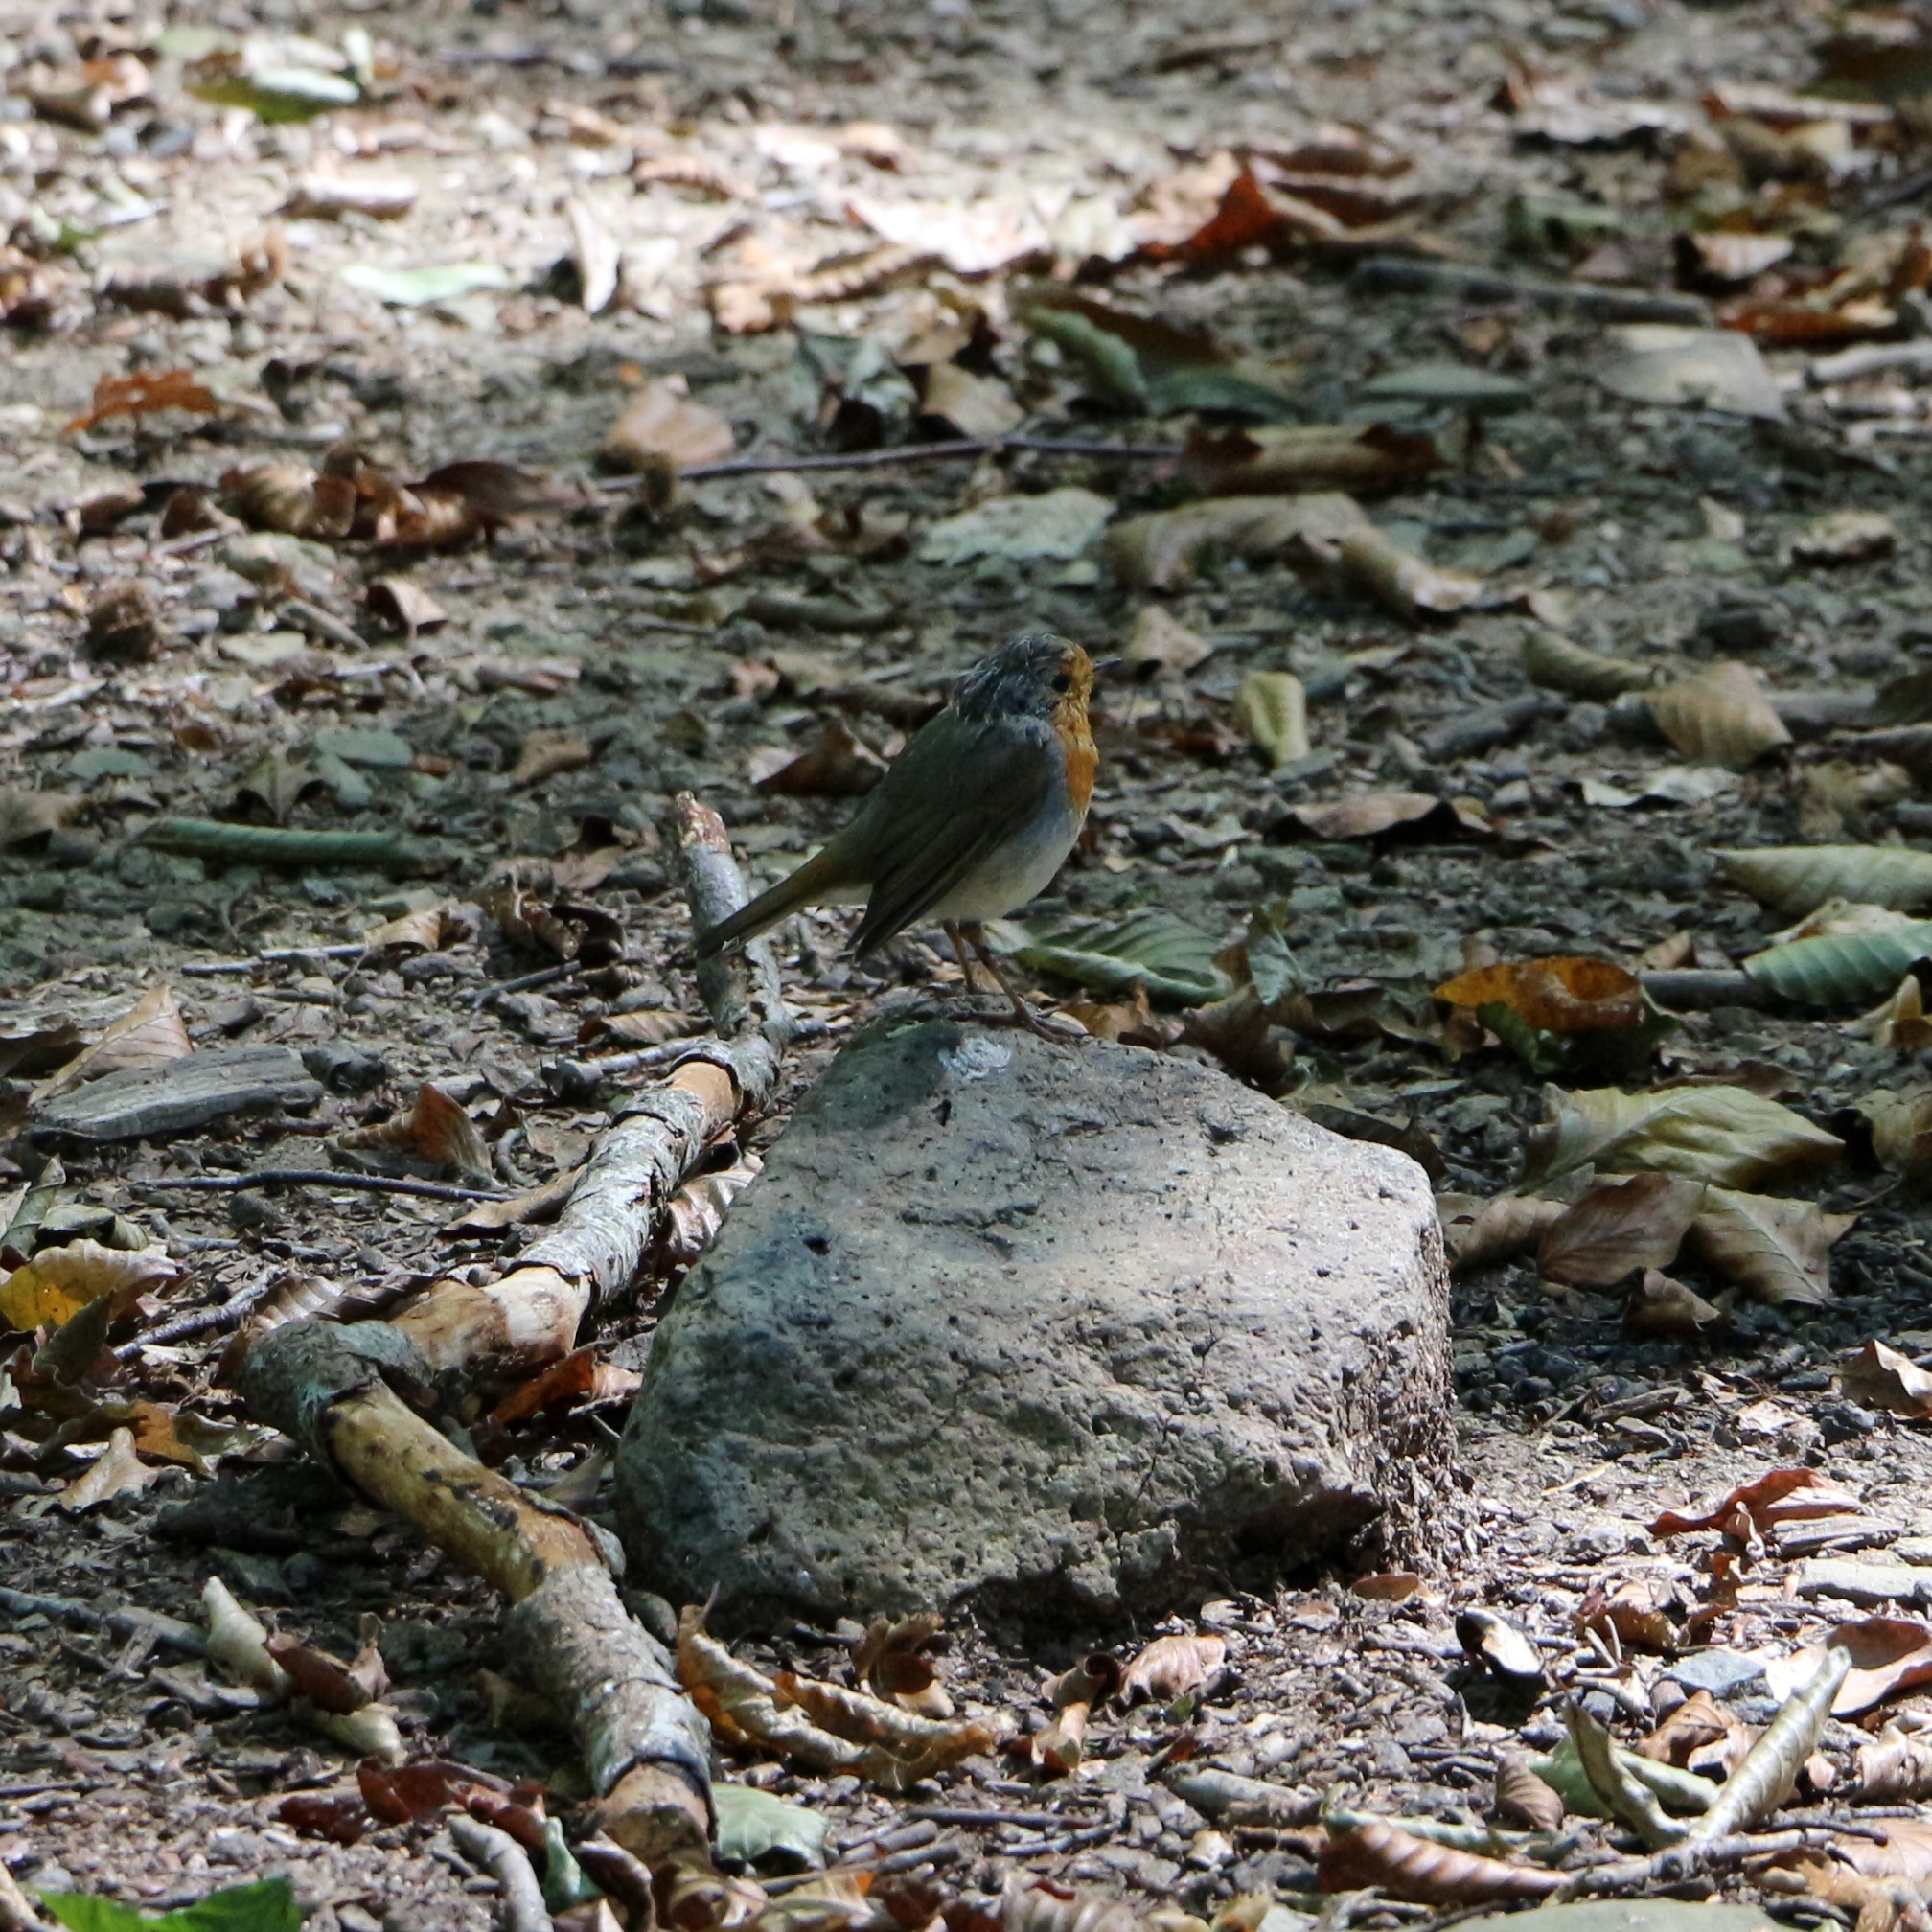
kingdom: Animalia
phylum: Chordata
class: Aves
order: Passeriformes
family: Muscicapidae
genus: Erithacus
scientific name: Erithacus rubecula
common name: European robin
